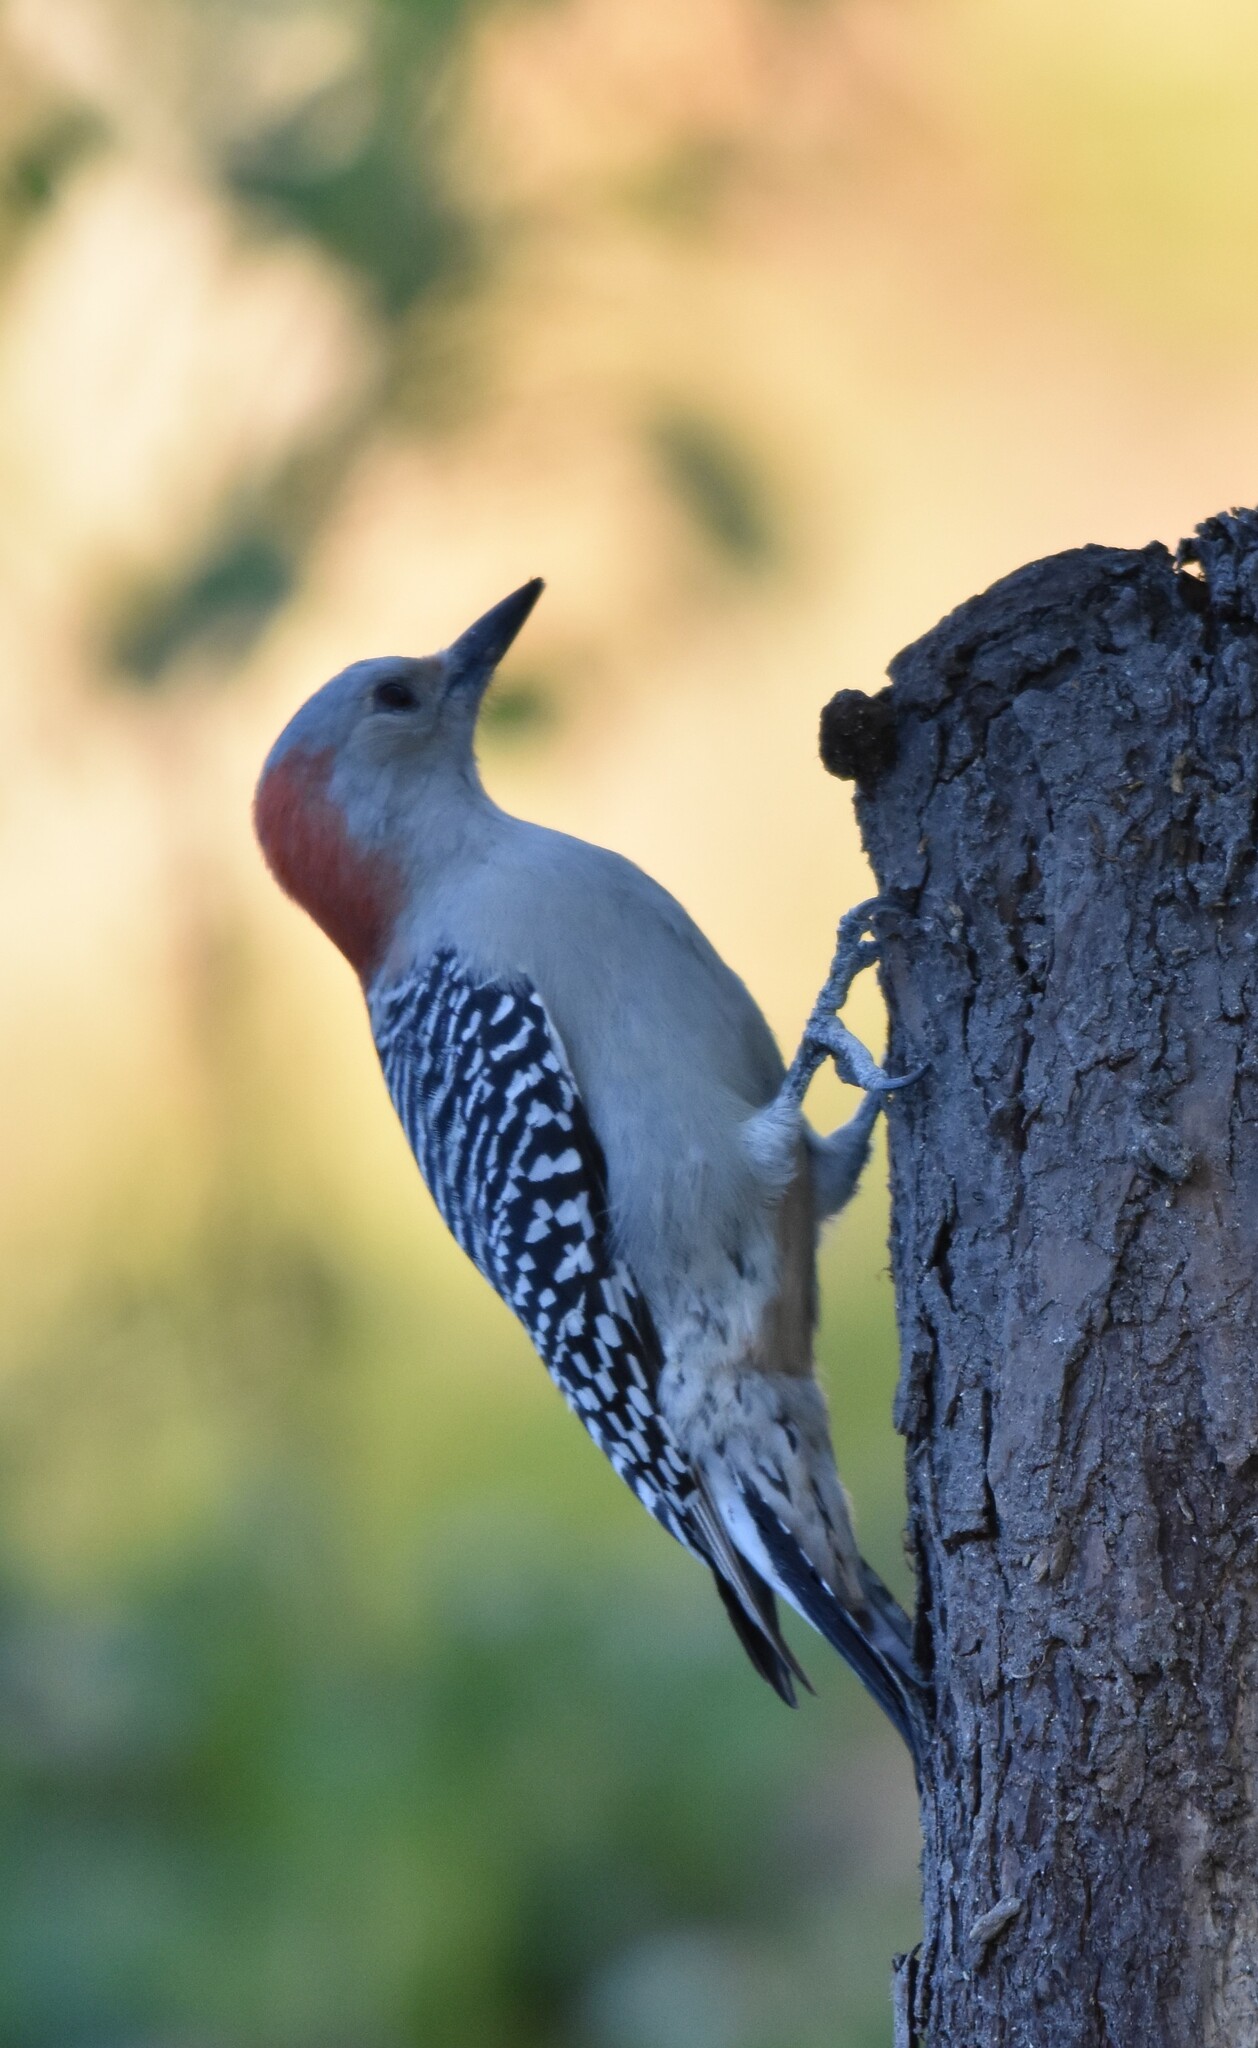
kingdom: Animalia
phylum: Chordata
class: Aves
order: Piciformes
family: Picidae
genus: Melanerpes
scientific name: Melanerpes carolinus
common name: Red-bellied woodpecker
